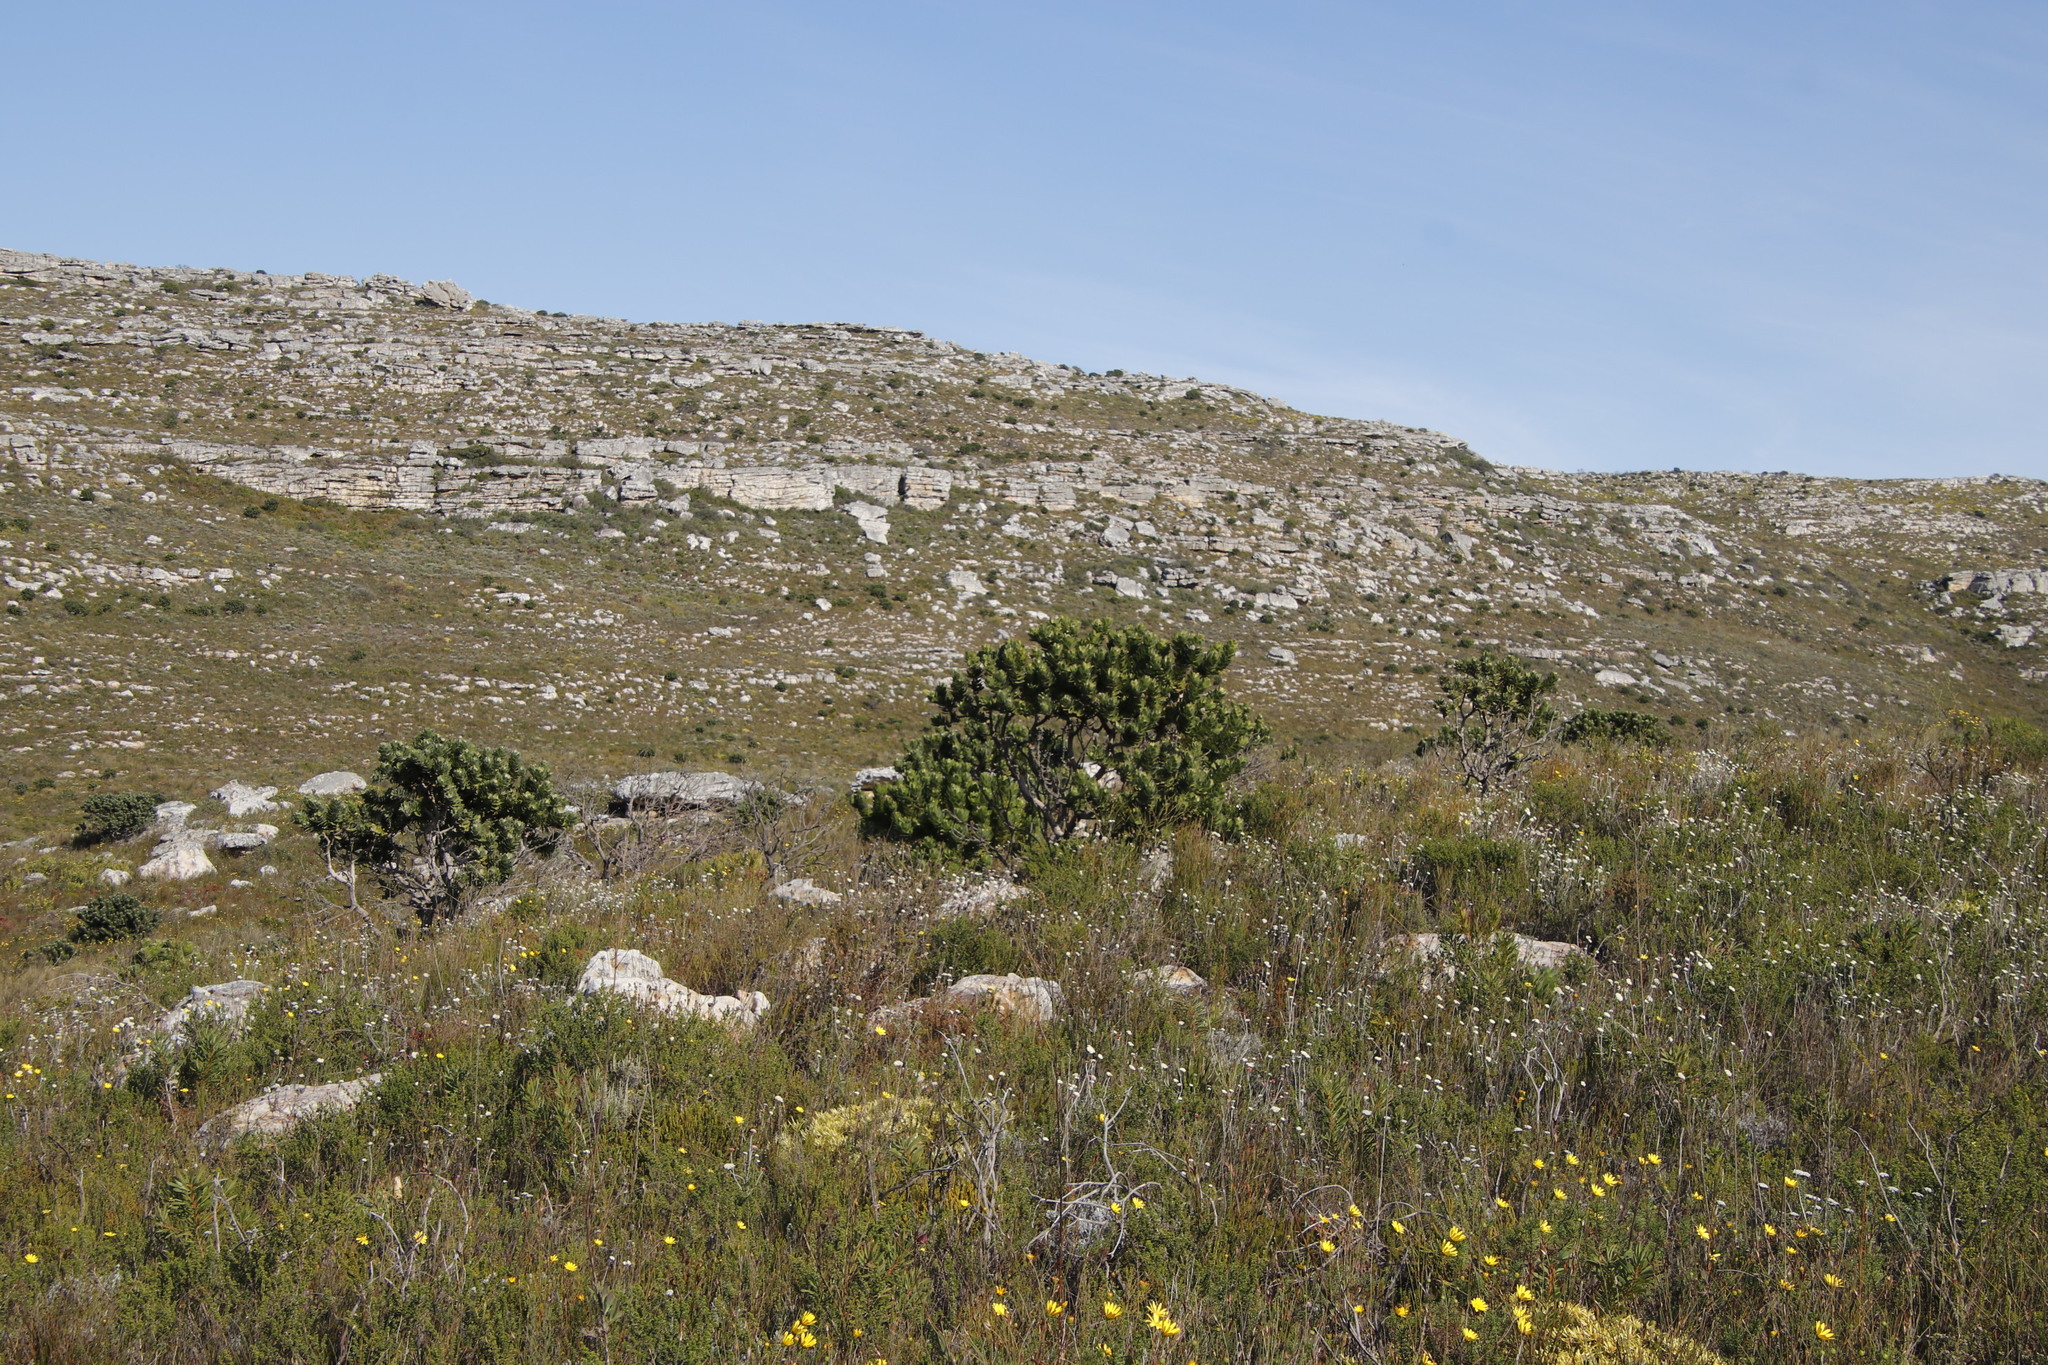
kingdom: Plantae
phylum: Tracheophyta
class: Magnoliopsida
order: Proteales
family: Proteaceae
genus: Leucospermum
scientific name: Leucospermum conocarpodendron
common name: Tree pincushion
